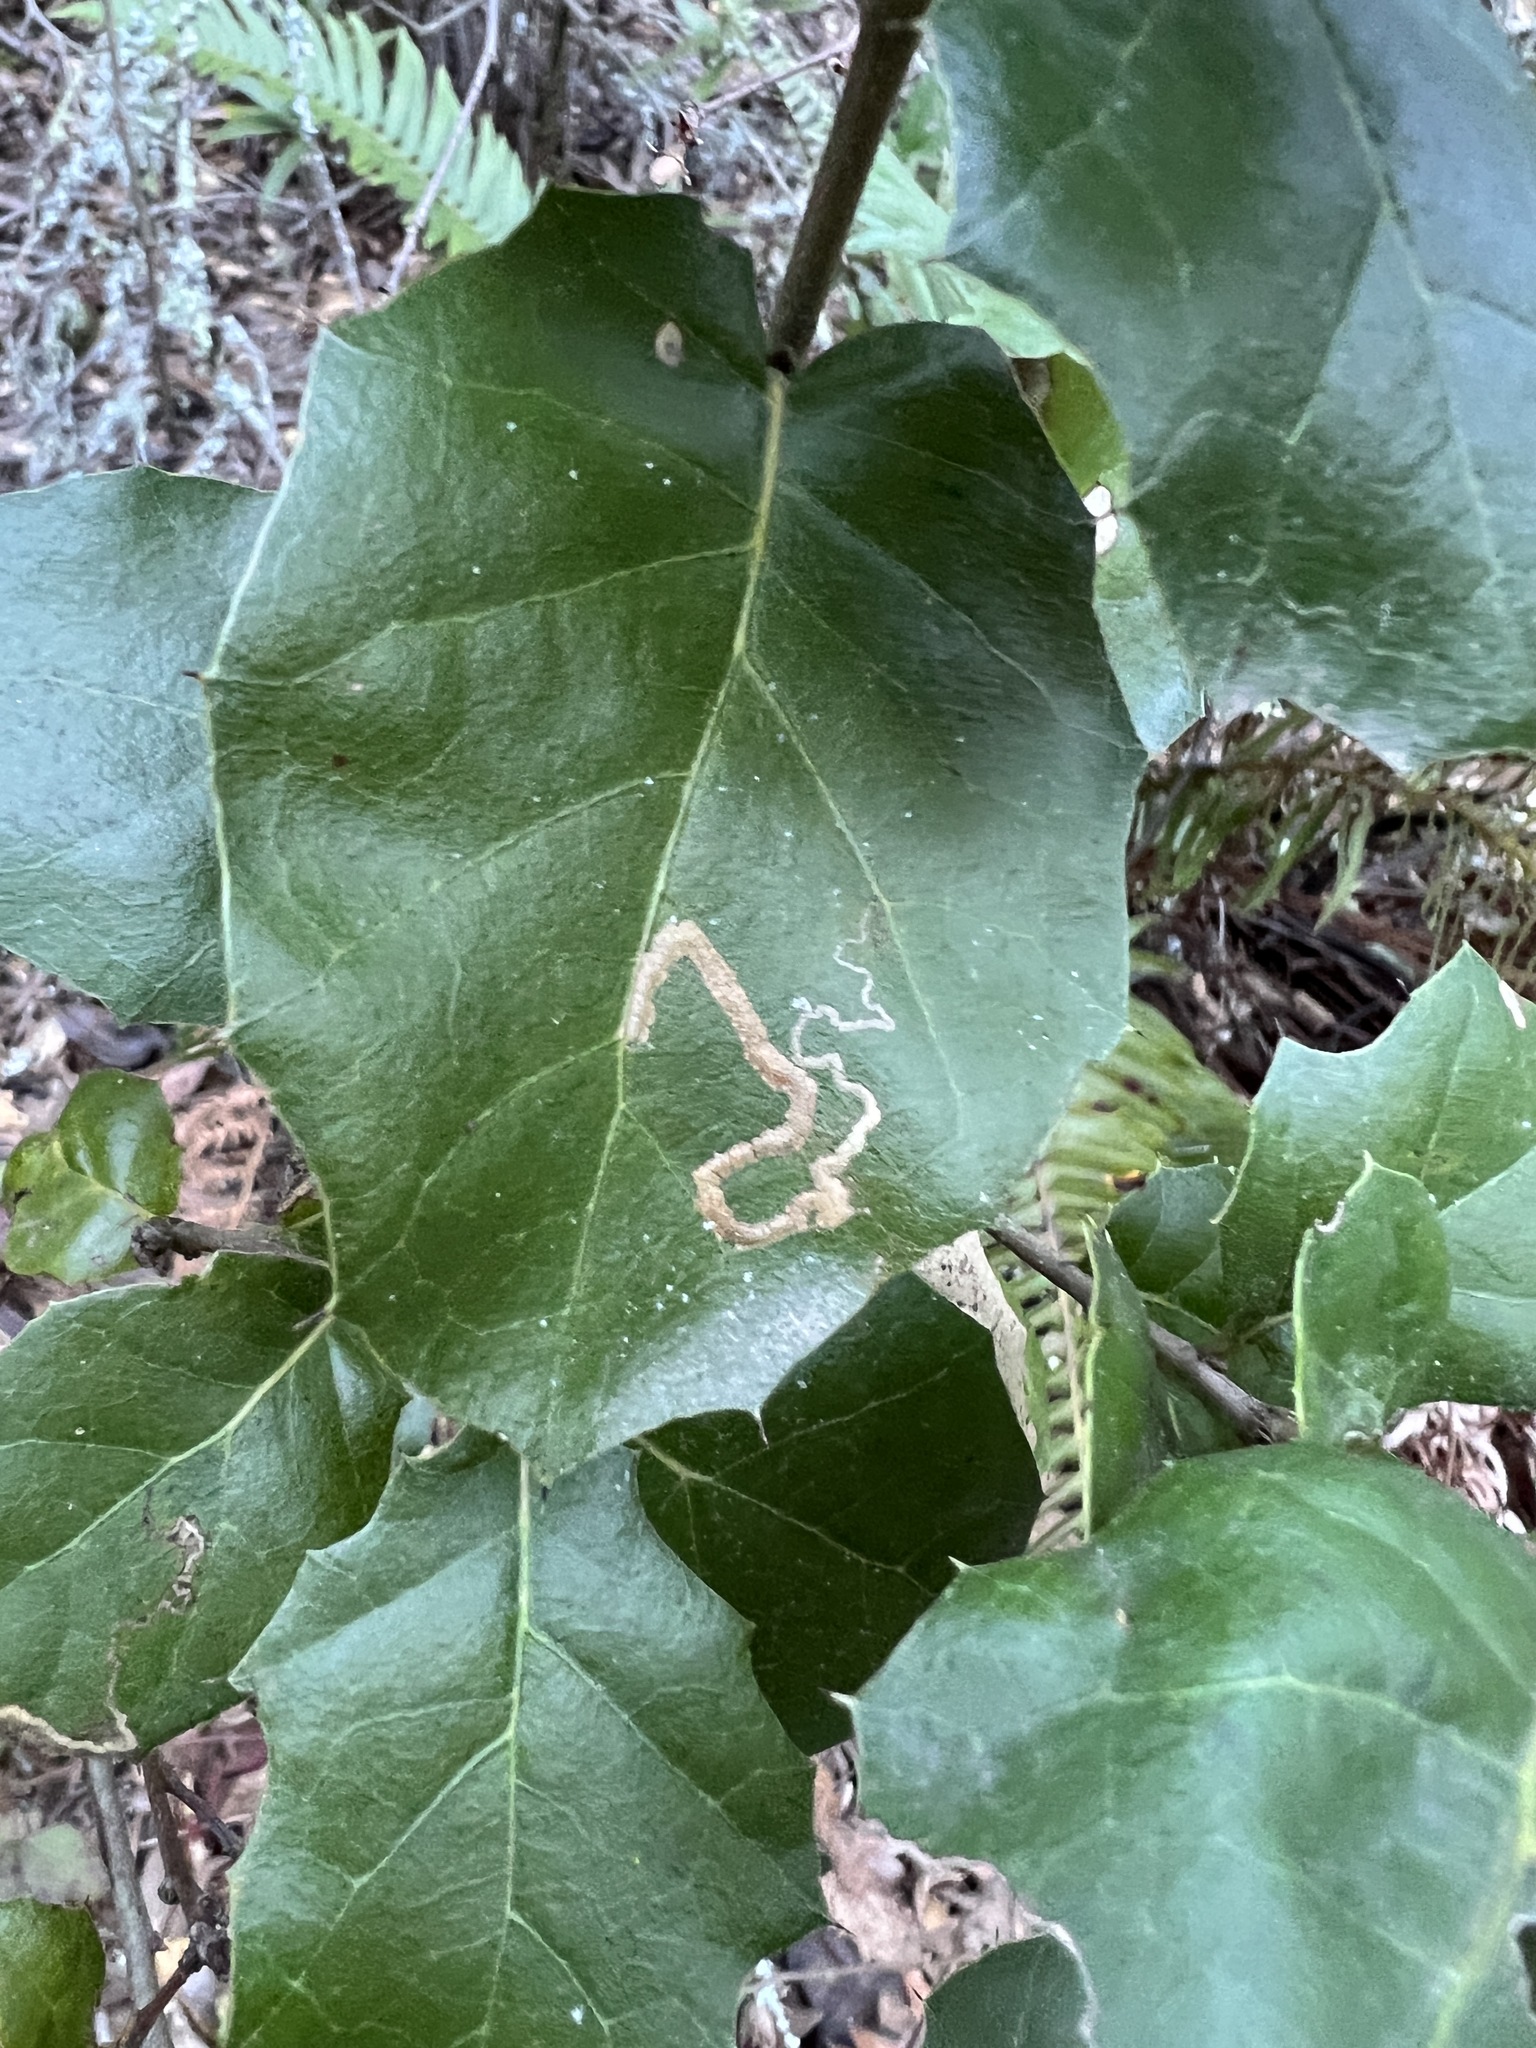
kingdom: Plantae
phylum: Tracheophyta
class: Magnoliopsida
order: Fagales
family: Fagaceae
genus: Quercus
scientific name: Quercus agrifolia
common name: California live oak
